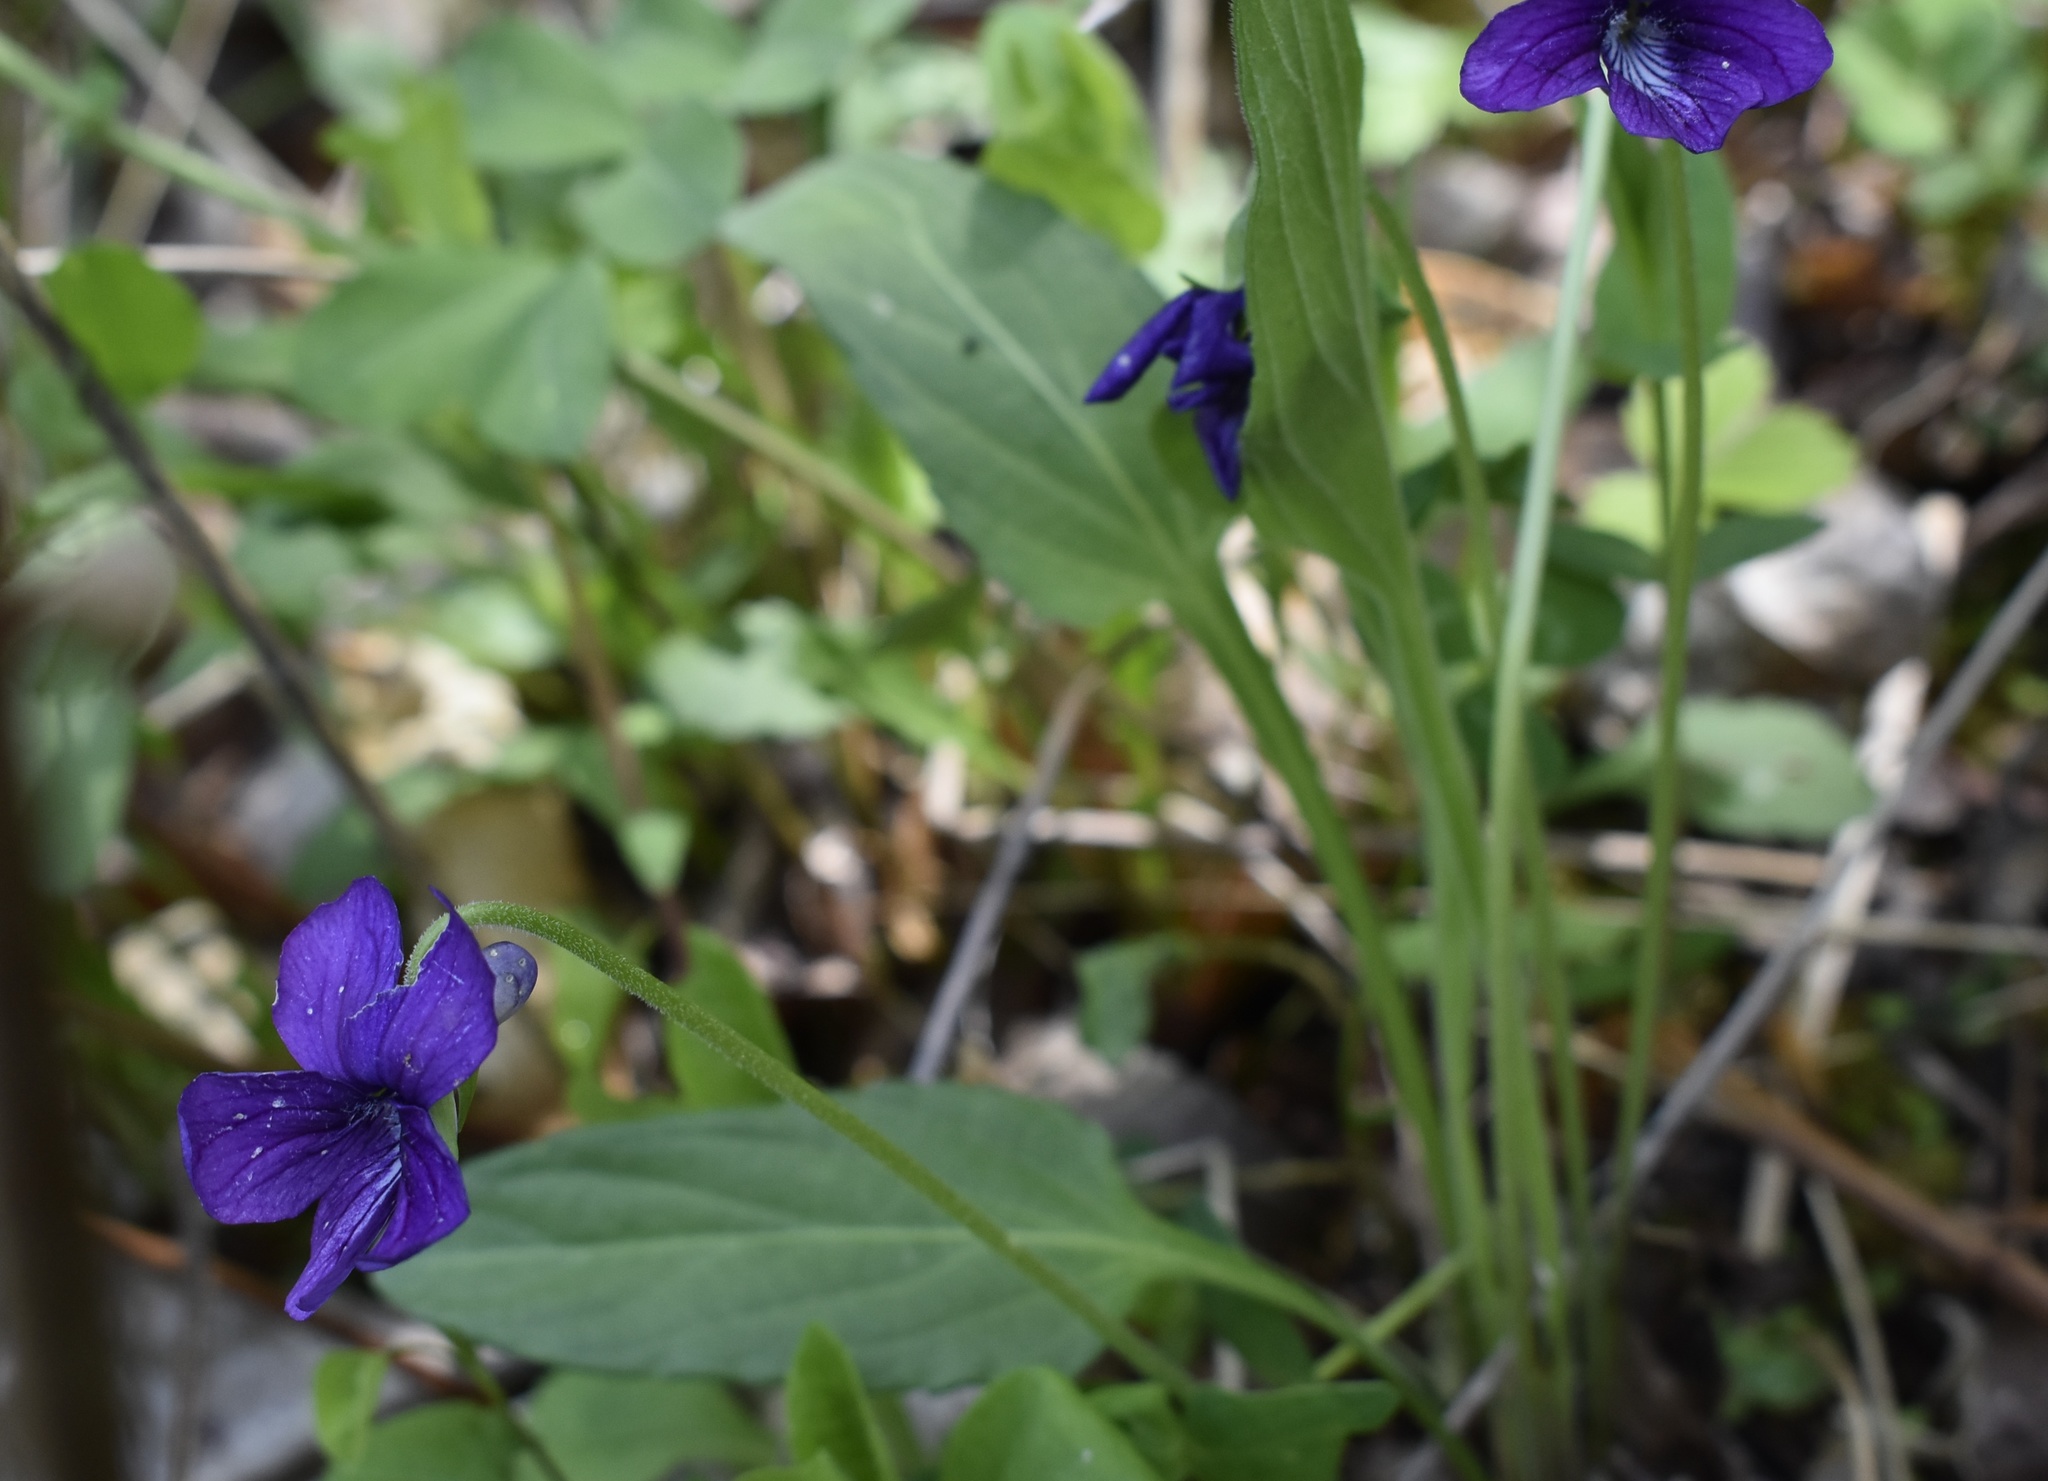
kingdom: Plantae
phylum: Tracheophyta
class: Magnoliopsida
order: Malpighiales
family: Violaceae
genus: Viola
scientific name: Viola mandshurica
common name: Manchuria violet
